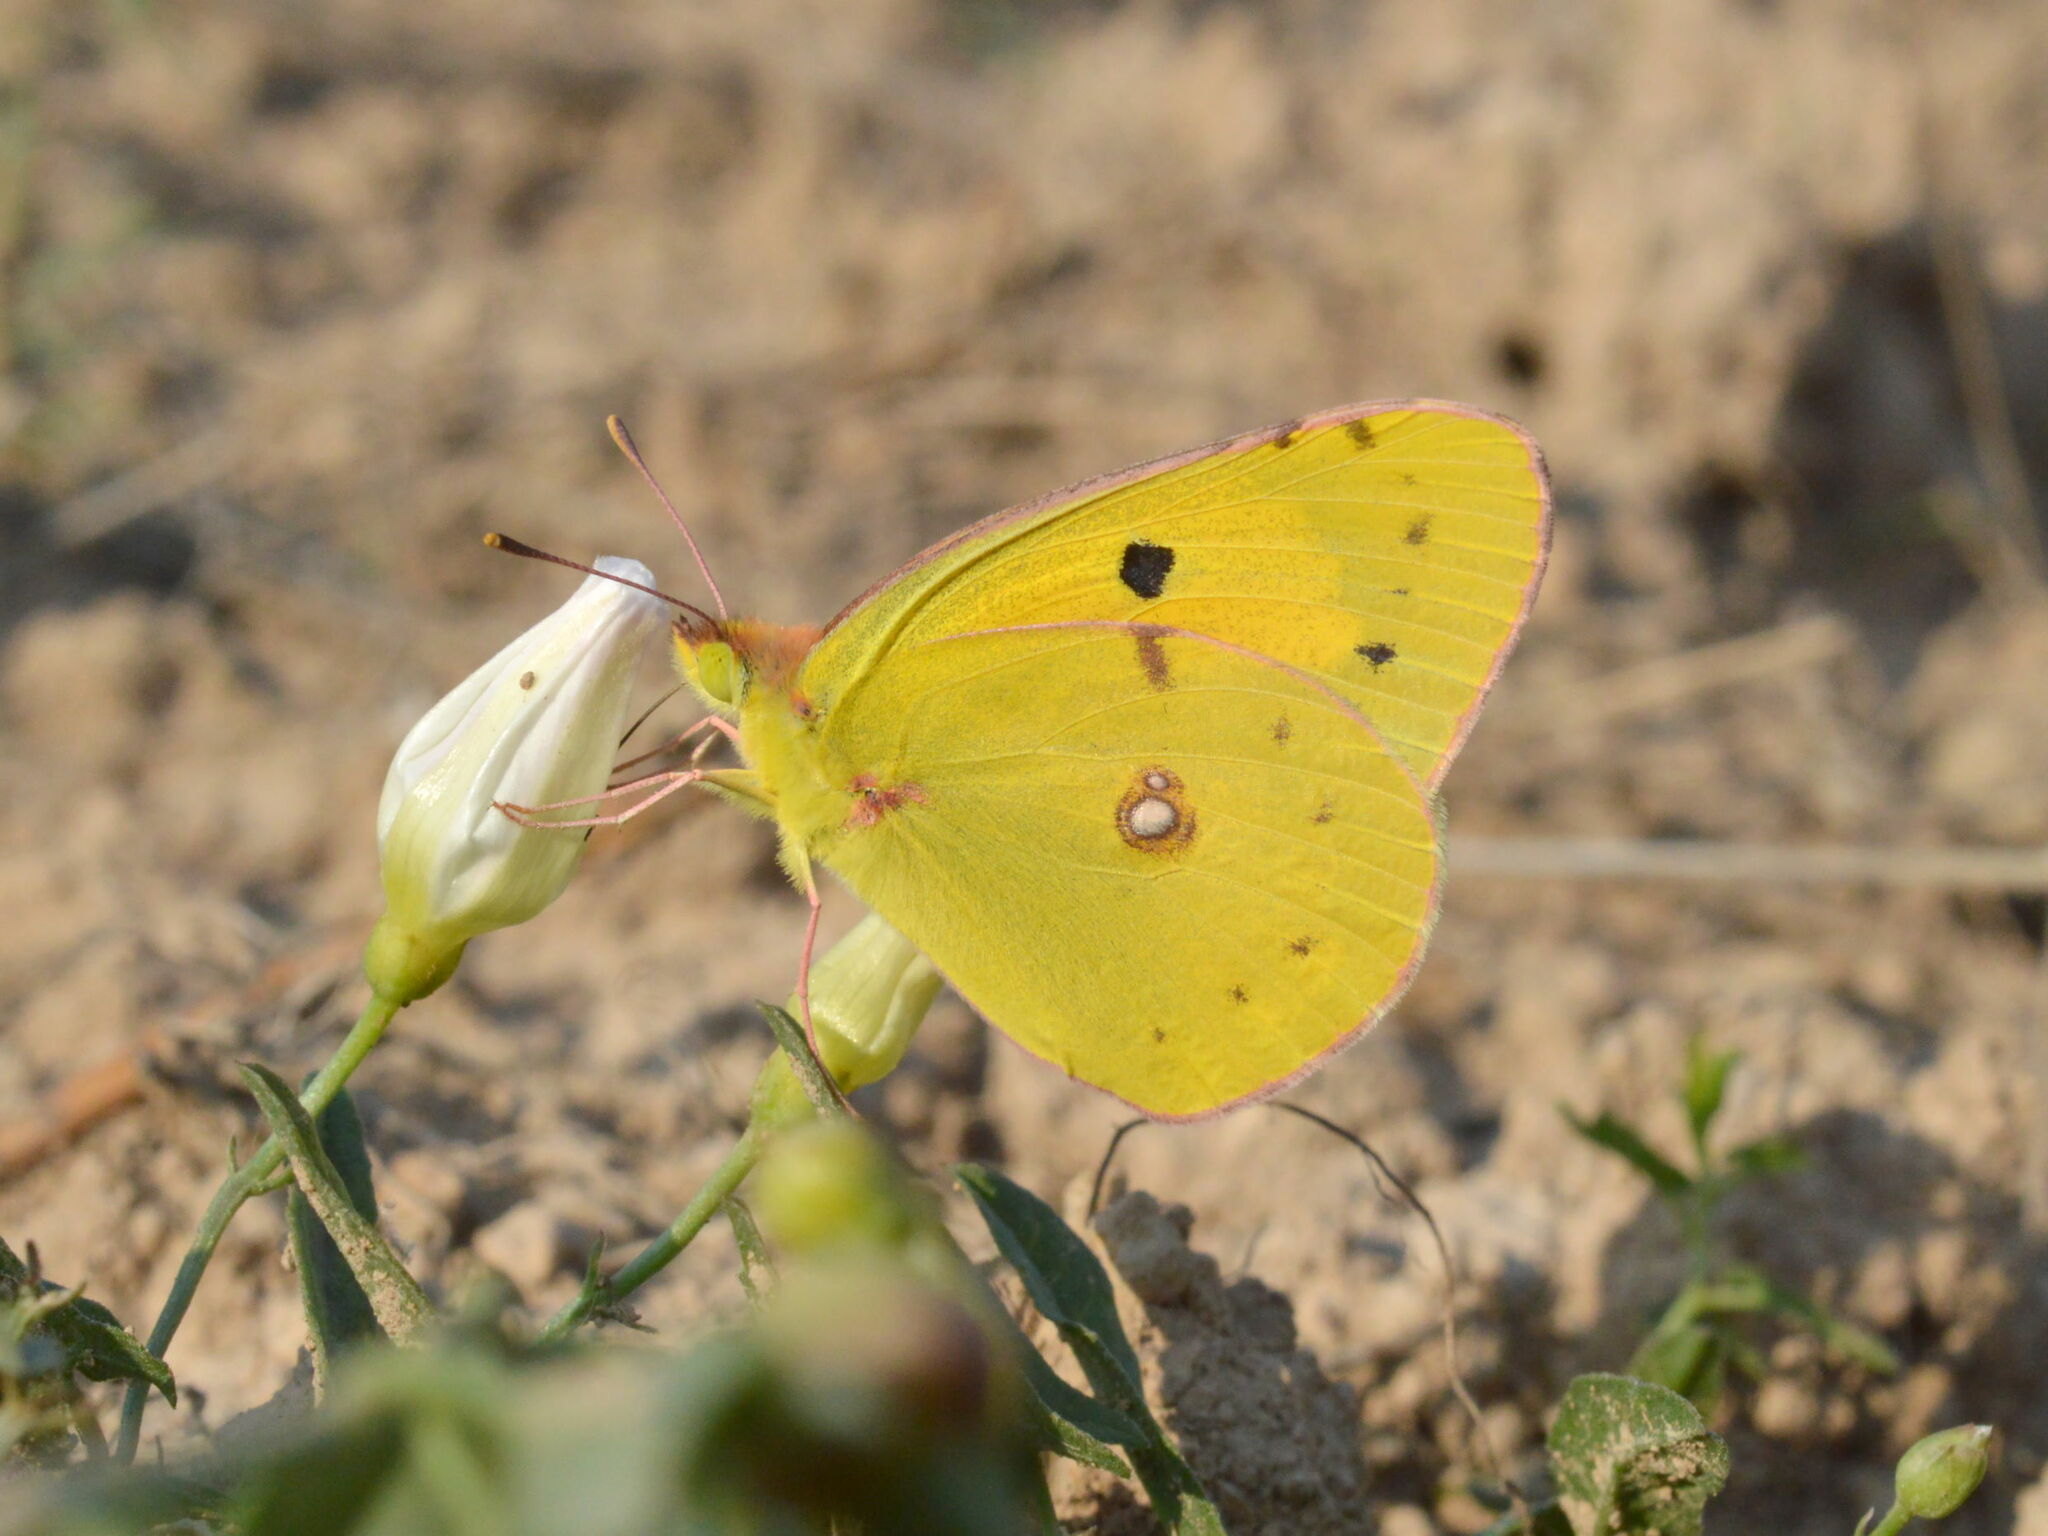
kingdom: Animalia
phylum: Arthropoda
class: Insecta
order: Lepidoptera
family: Pieridae
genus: Colias
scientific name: Colias croceus
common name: Clouded yellow
